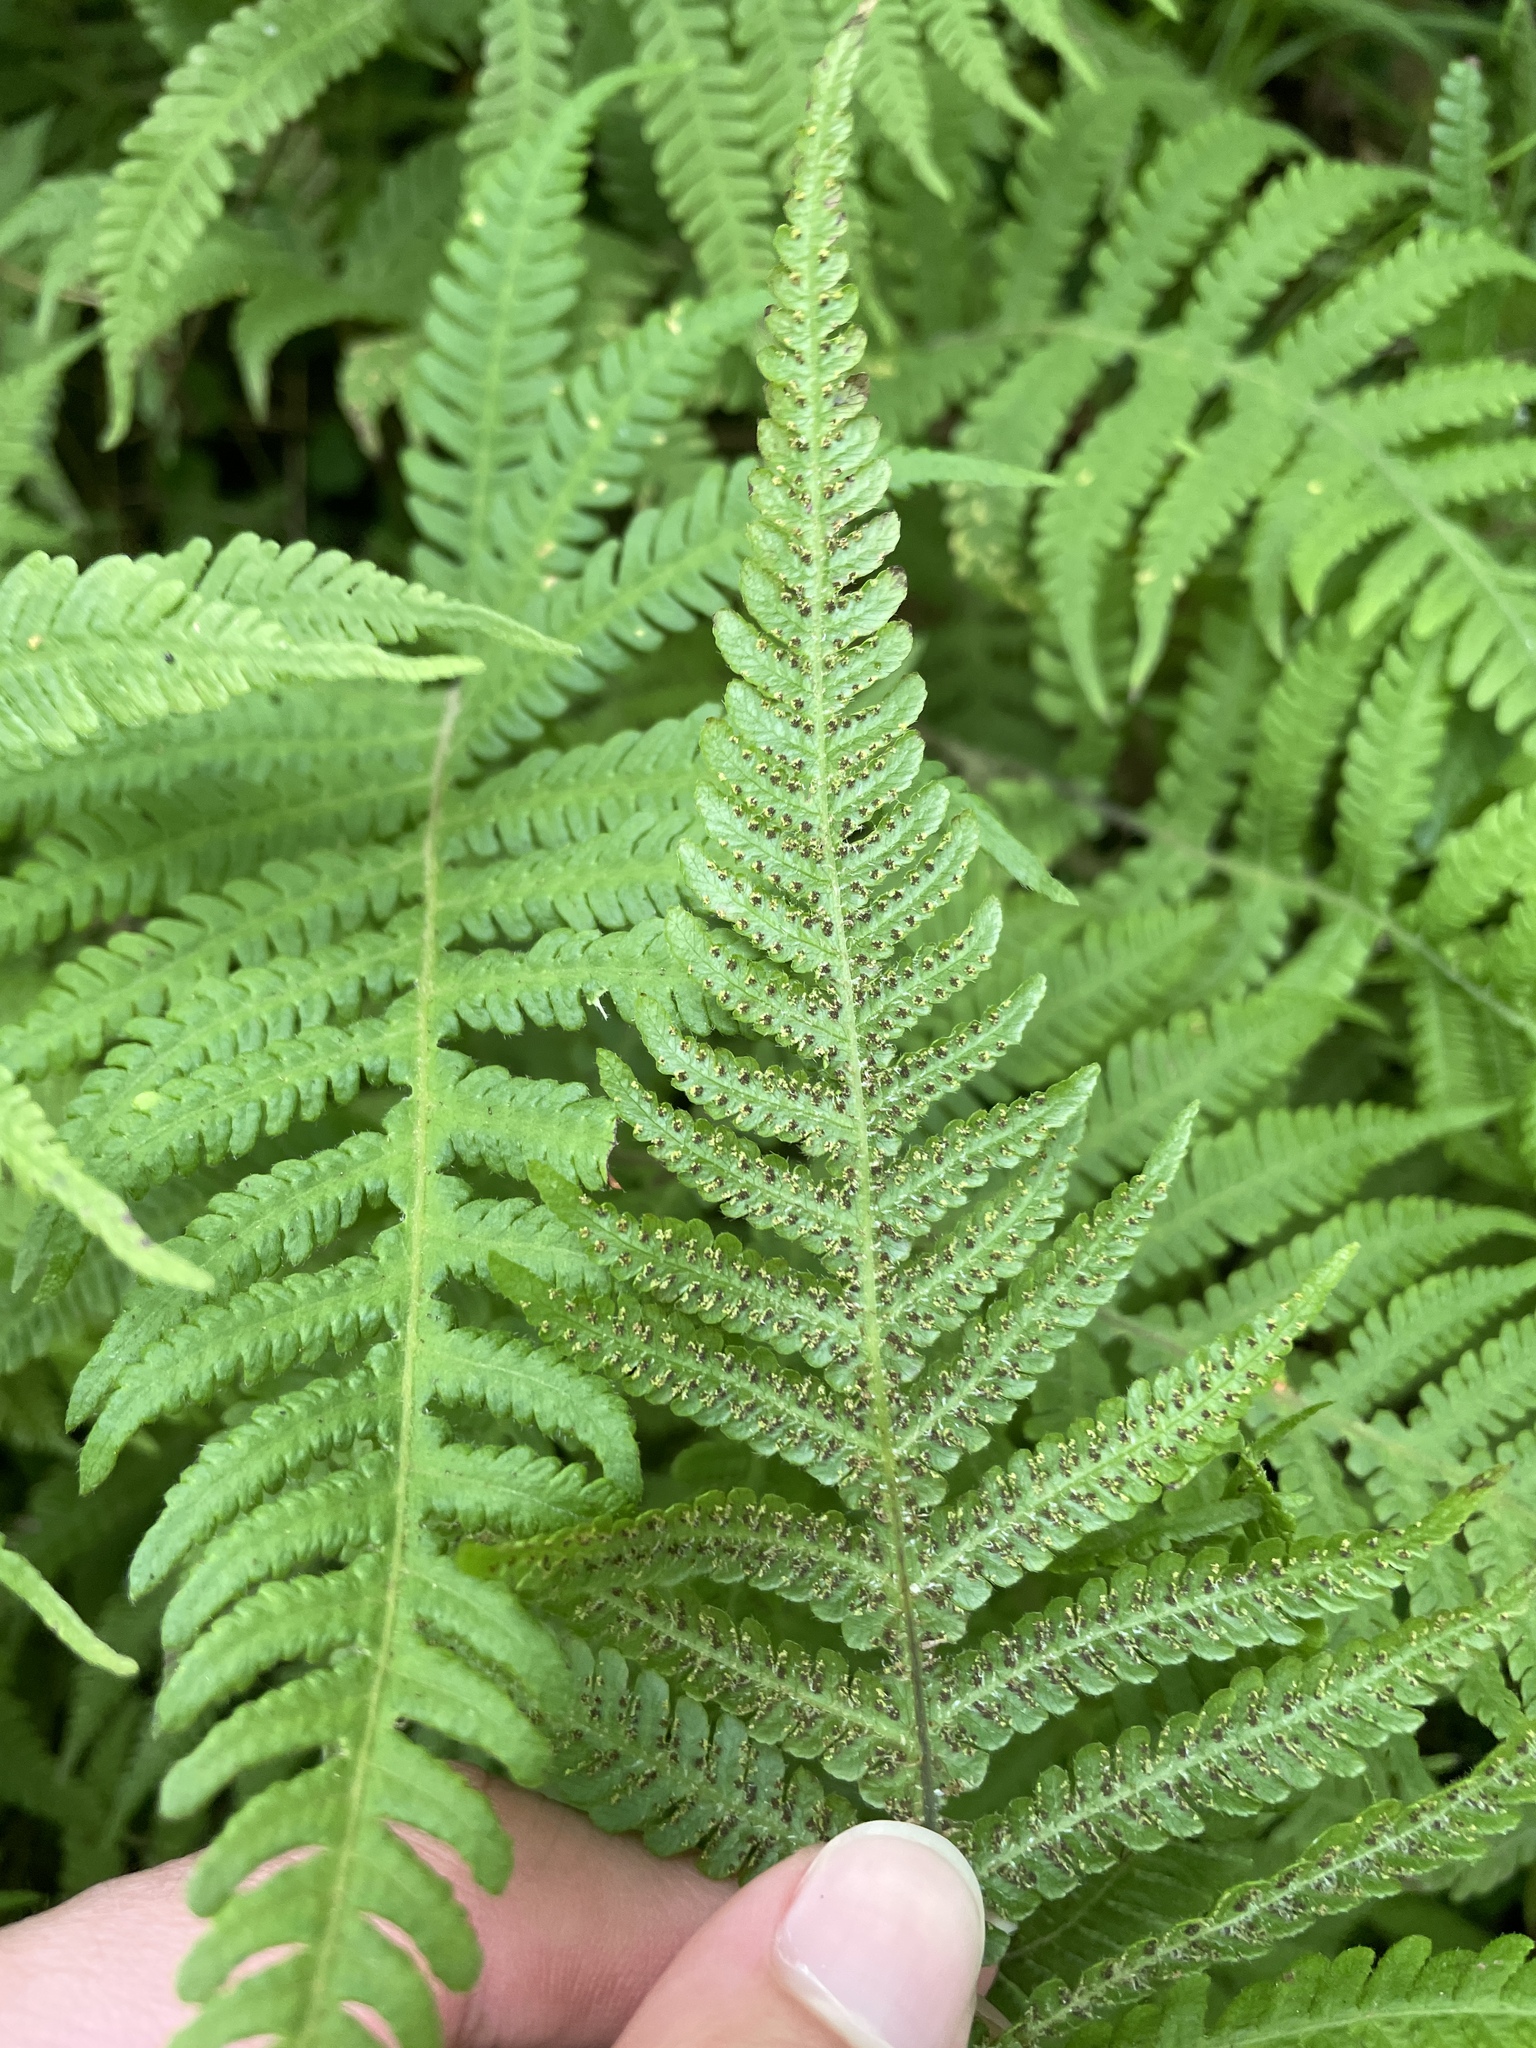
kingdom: Plantae
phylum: Tracheophyta
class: Polypodiopsida
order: Polypodiales
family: Thelypteridaceae
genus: Phegopteris
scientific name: Phegopteris connectilis
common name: Beech fern
